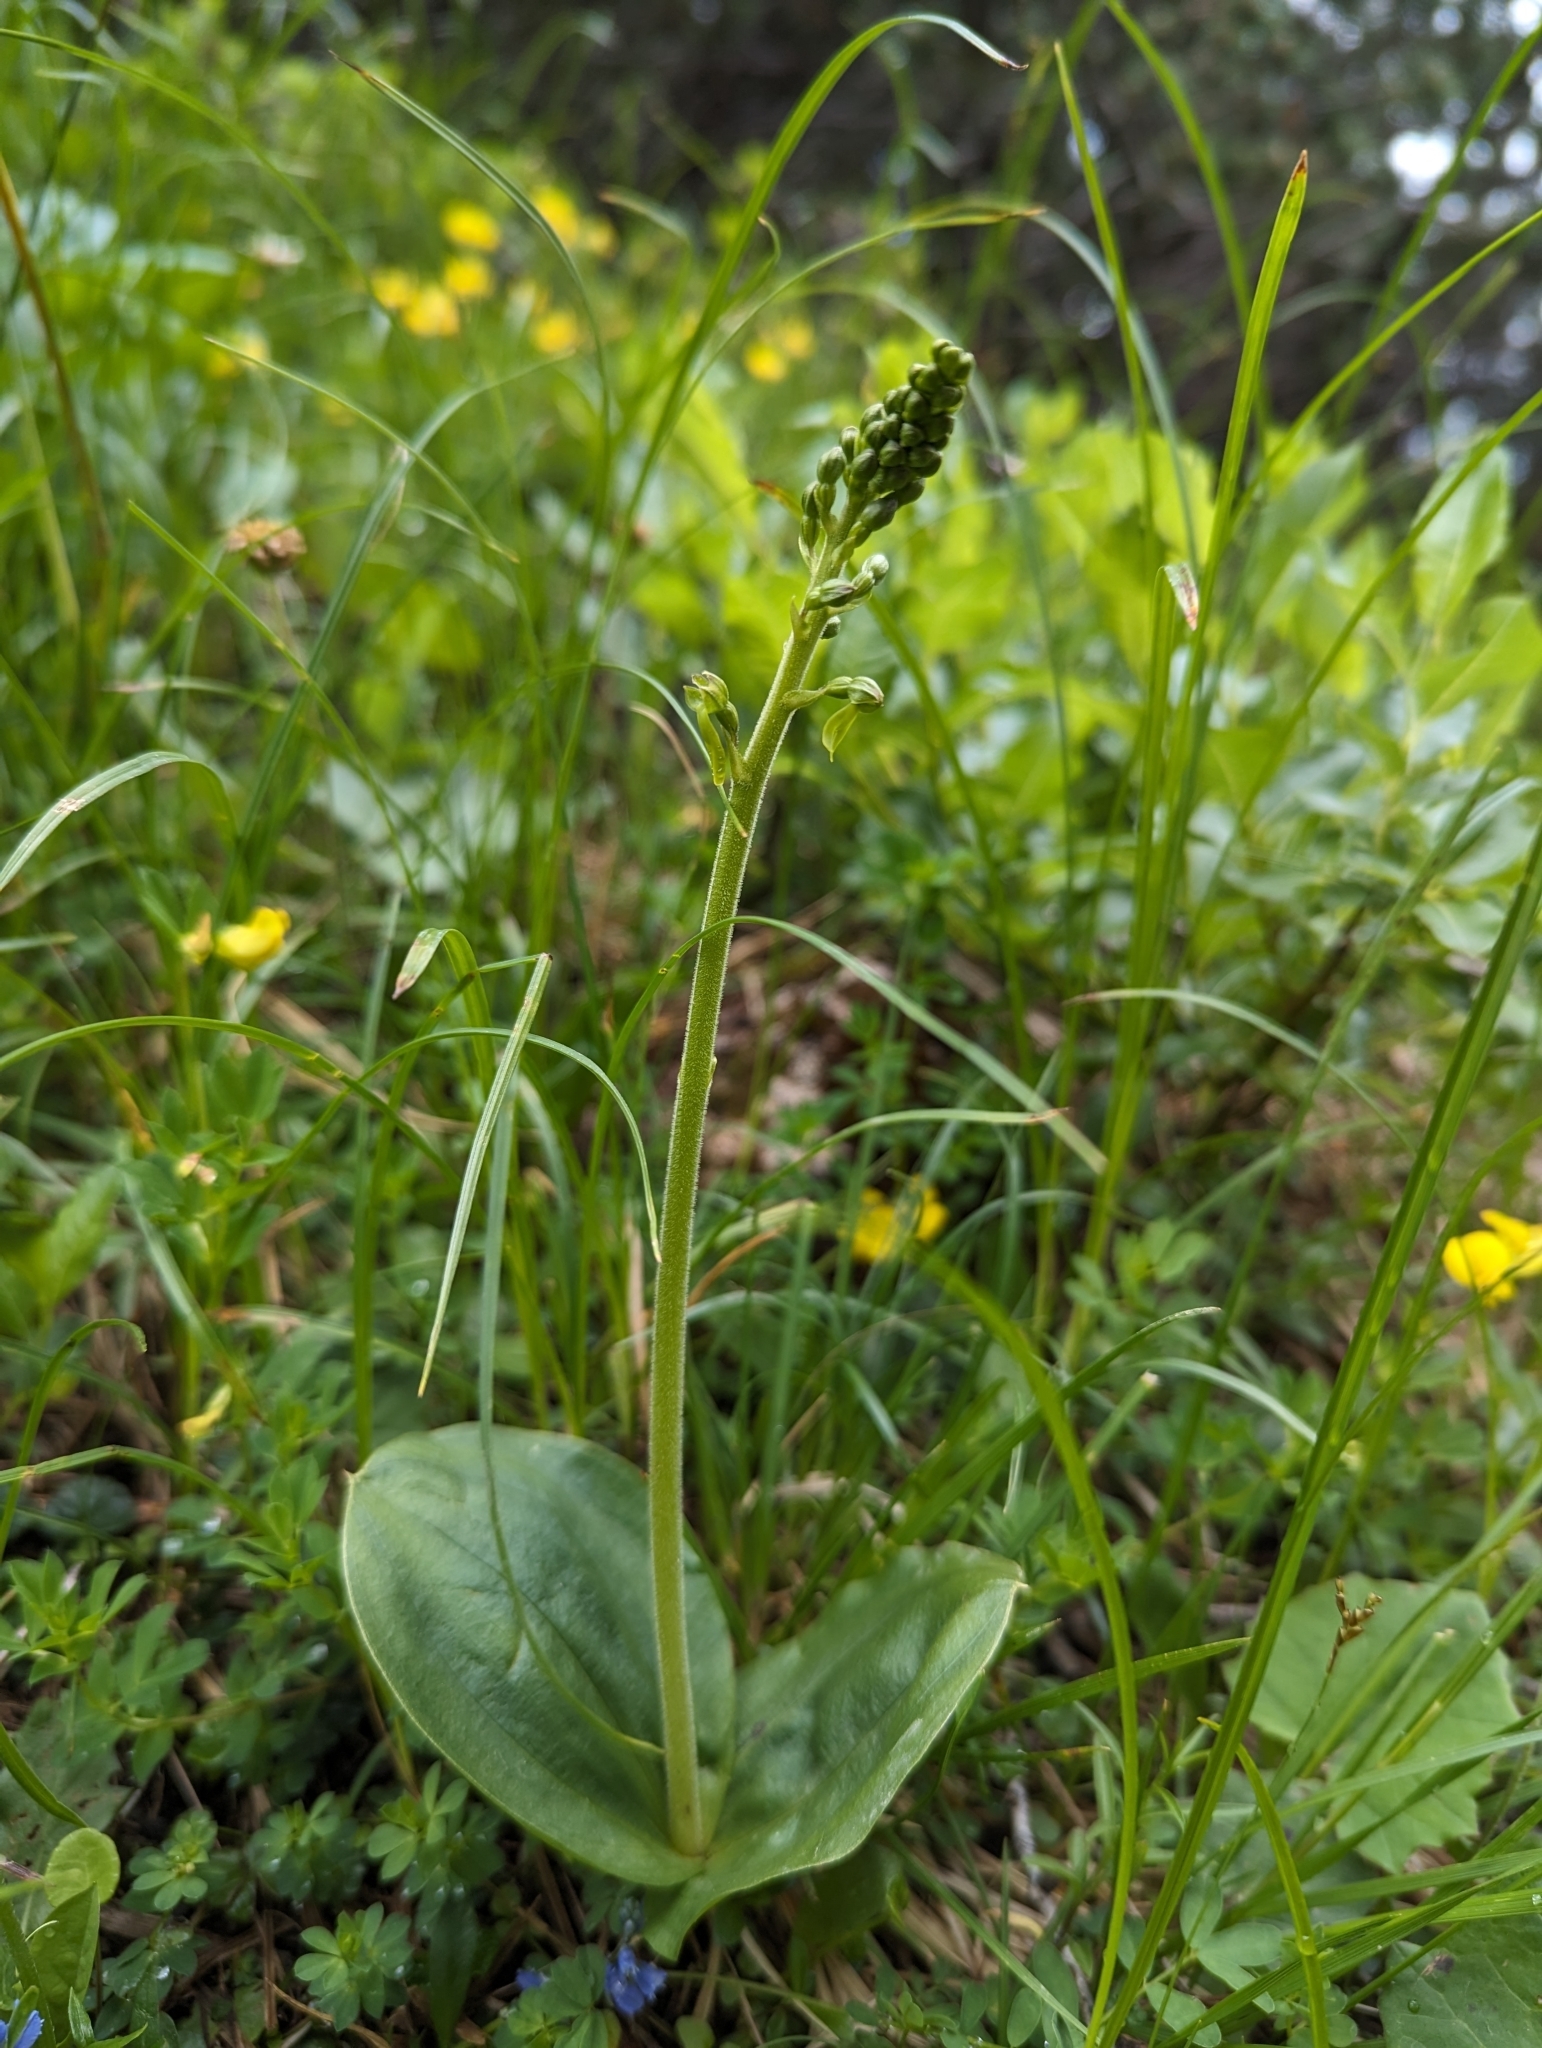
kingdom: Plantae
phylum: Tracheophyta
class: Liliopsida
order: Asparagales
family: Orchidaceae
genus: Neottia
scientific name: Neottia ovata
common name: Common twayblade
